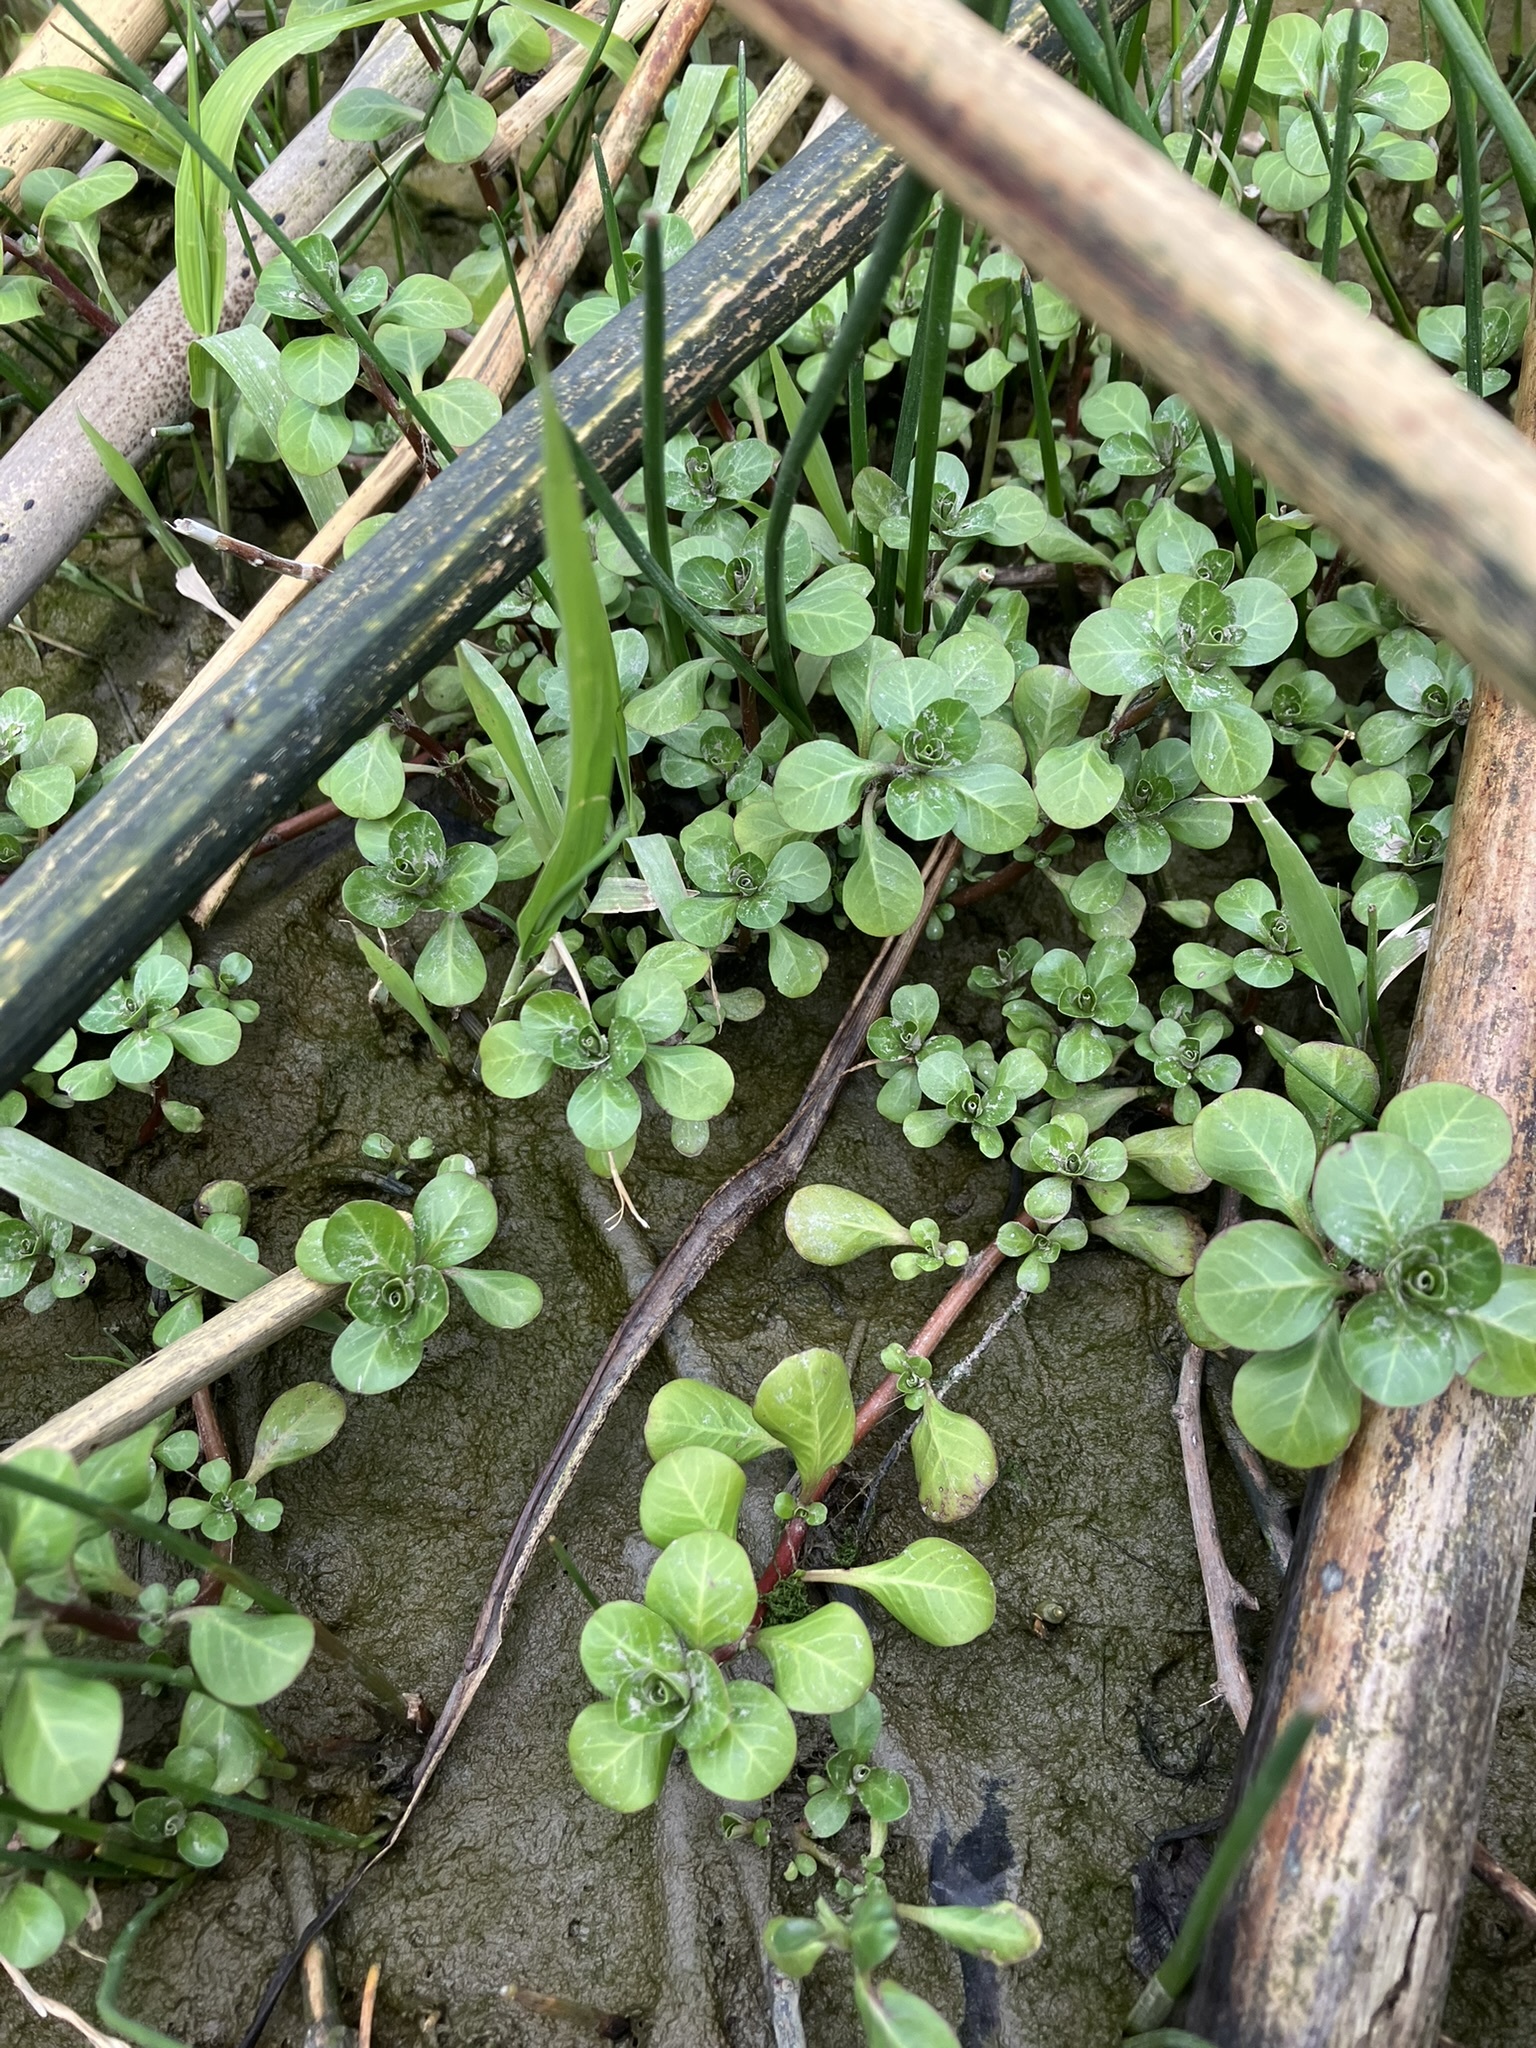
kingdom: Plantae
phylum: Tracheophyta
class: Magnoliopsida
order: Myrtales
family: Onagraceae
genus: Ludwigia
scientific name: Ludwigia peploides
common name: Floating primrose-willow
